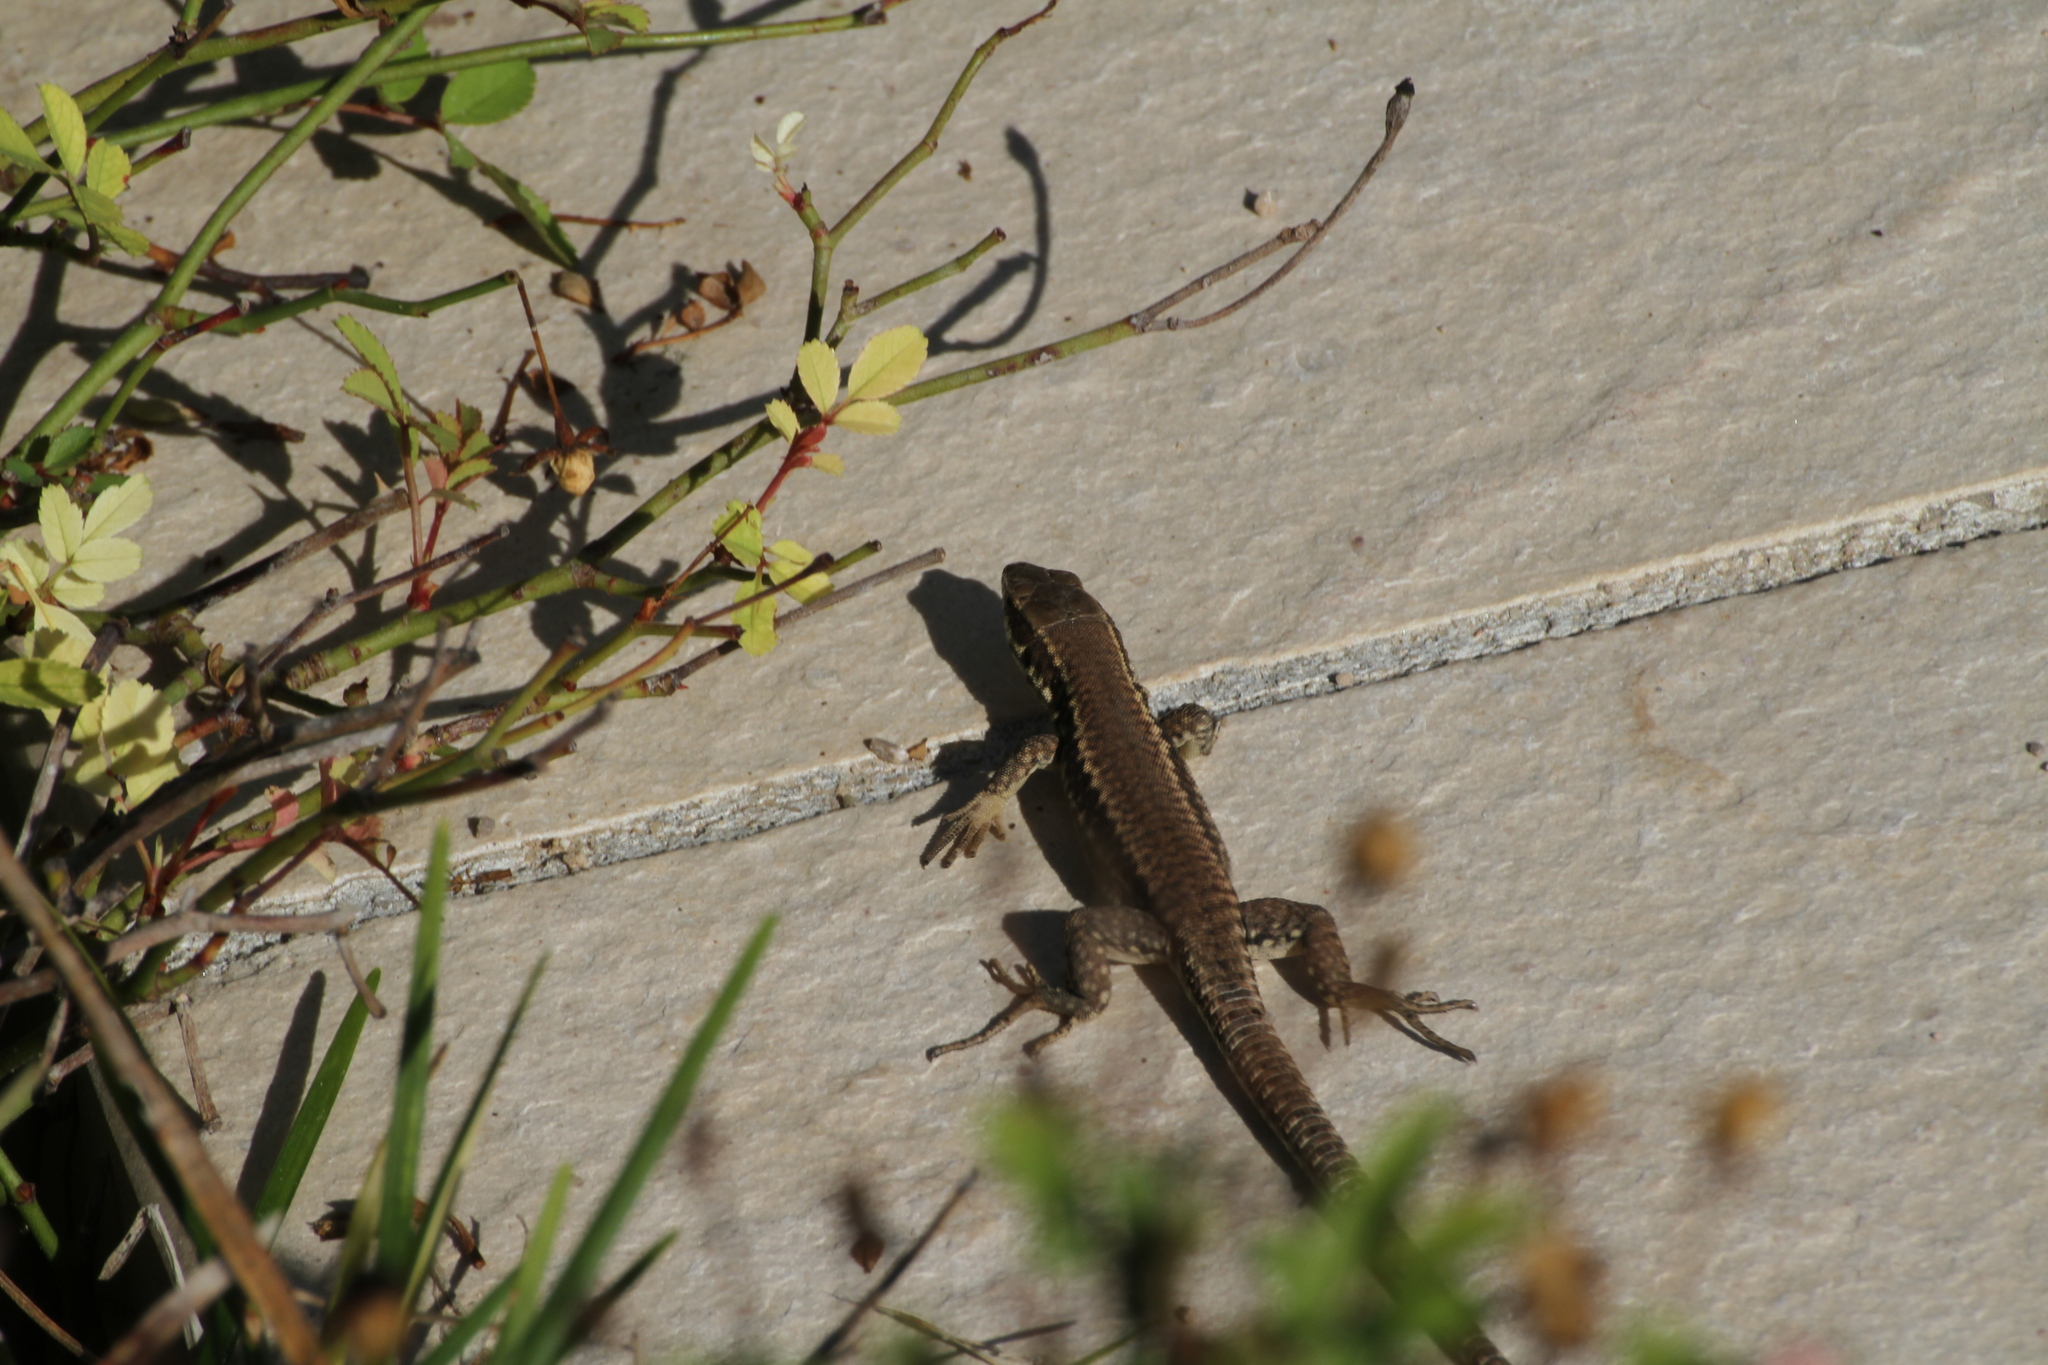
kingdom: Animalia
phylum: Chordata
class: Squamata
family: Lacertidae
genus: Podarcis
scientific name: Podarcis muralis
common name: Common wall lizard
